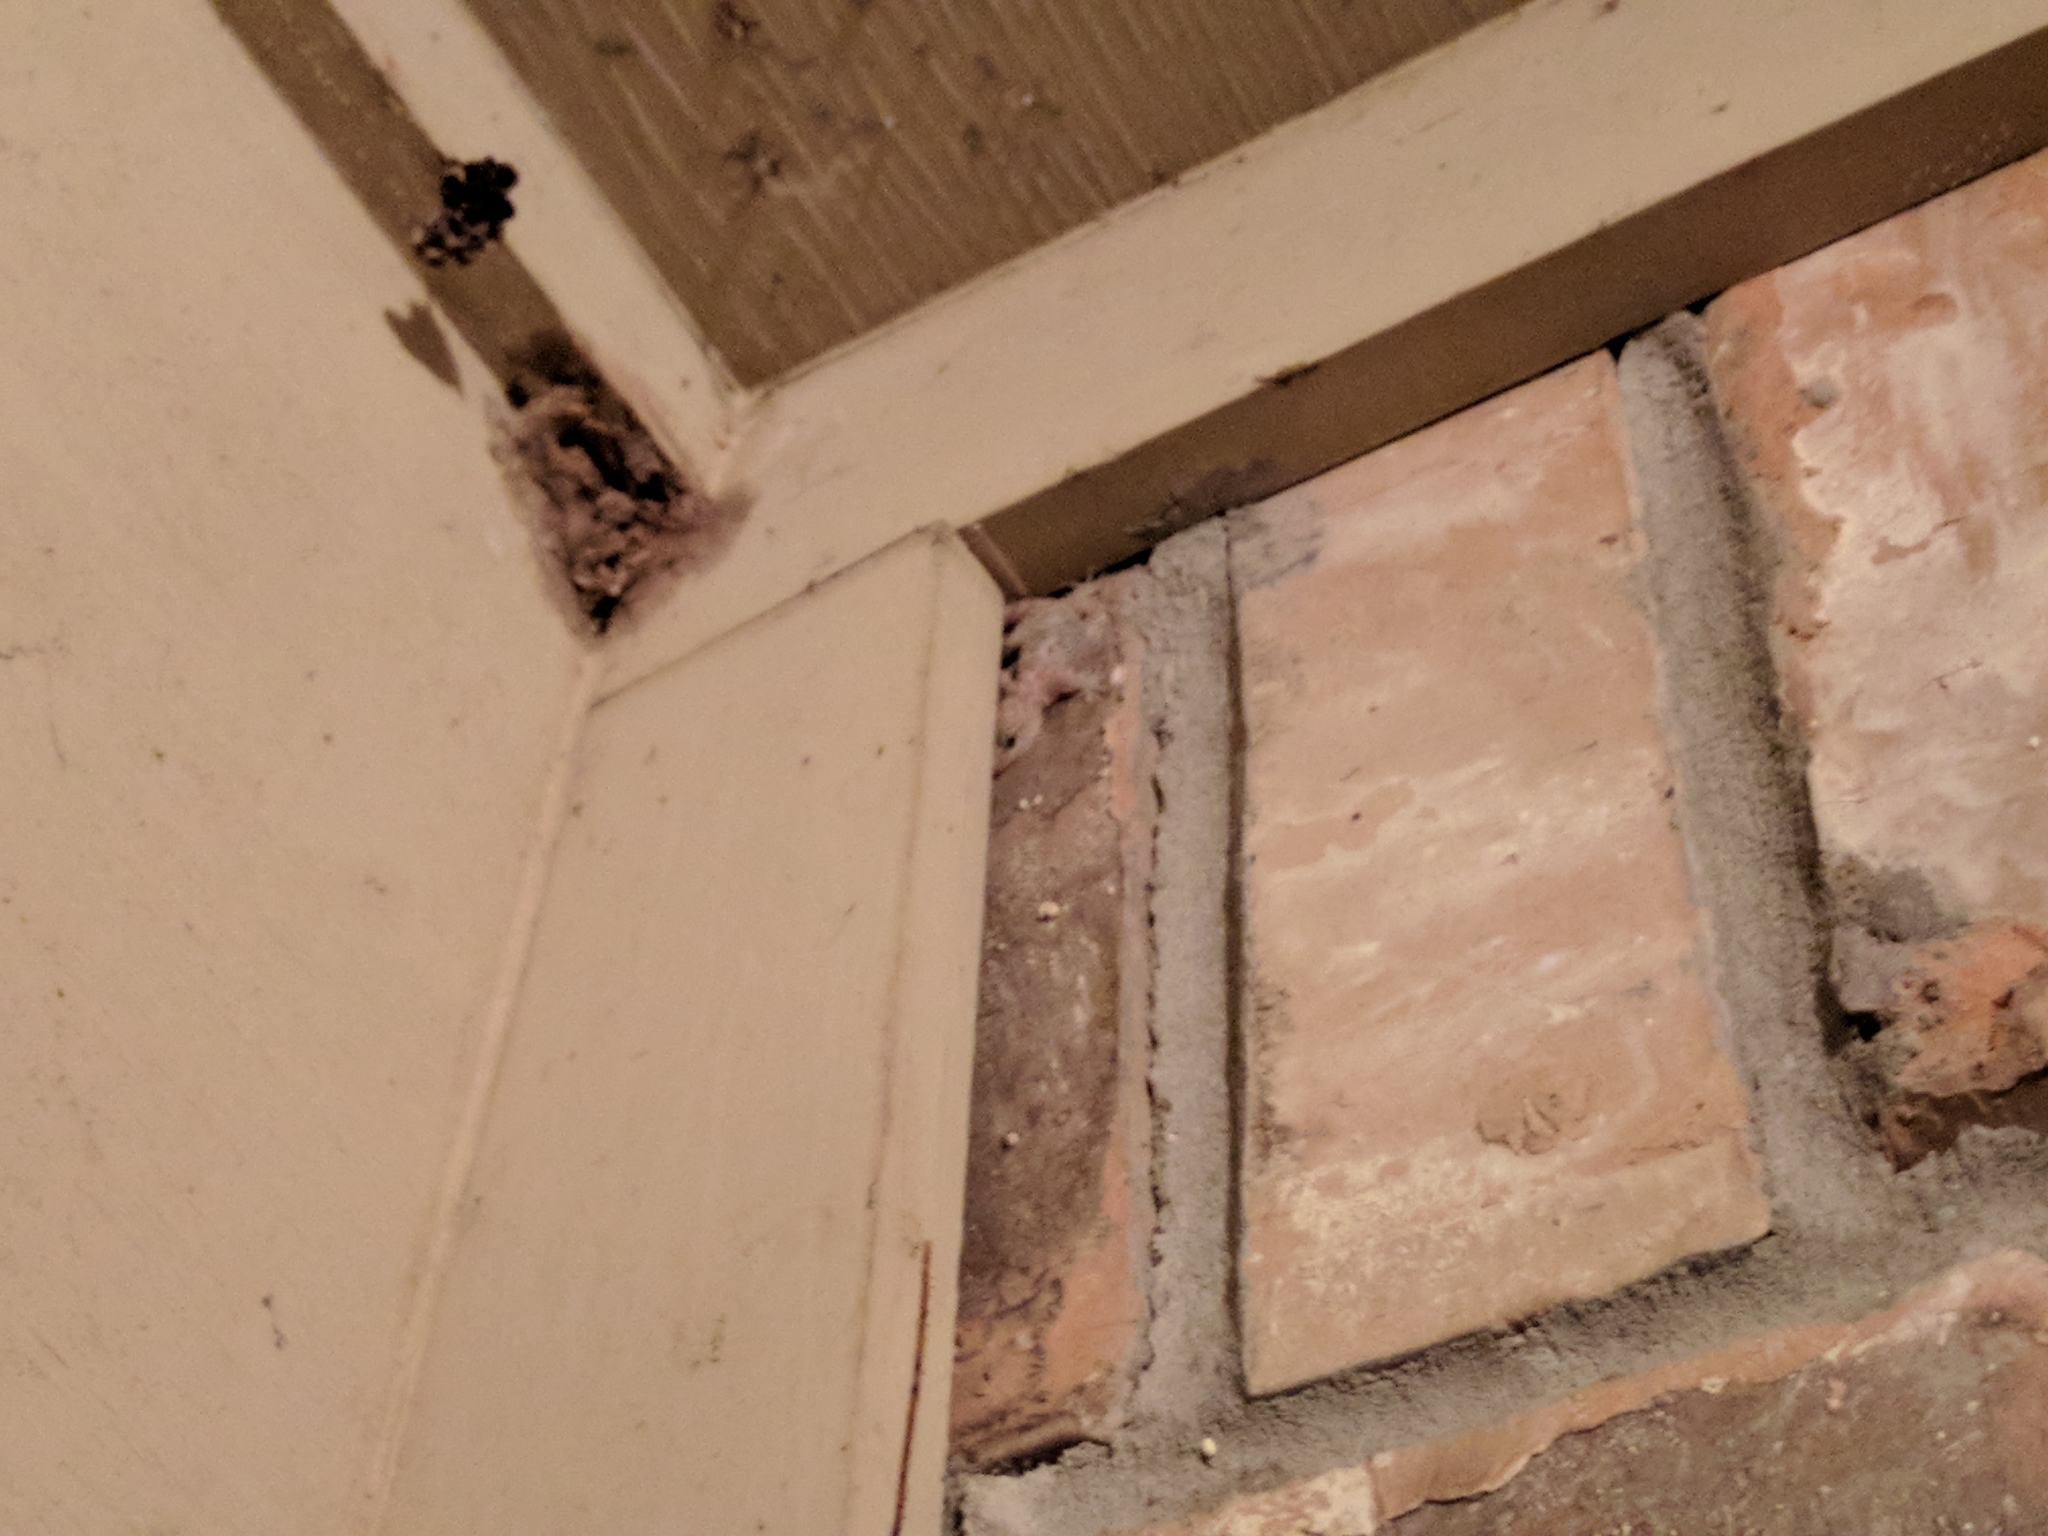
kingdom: Animalia
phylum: Chordata
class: Squamata
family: Gekkonidae
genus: Hemidactylus
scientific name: Hemidactylus turcicus
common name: Turkish gecko
